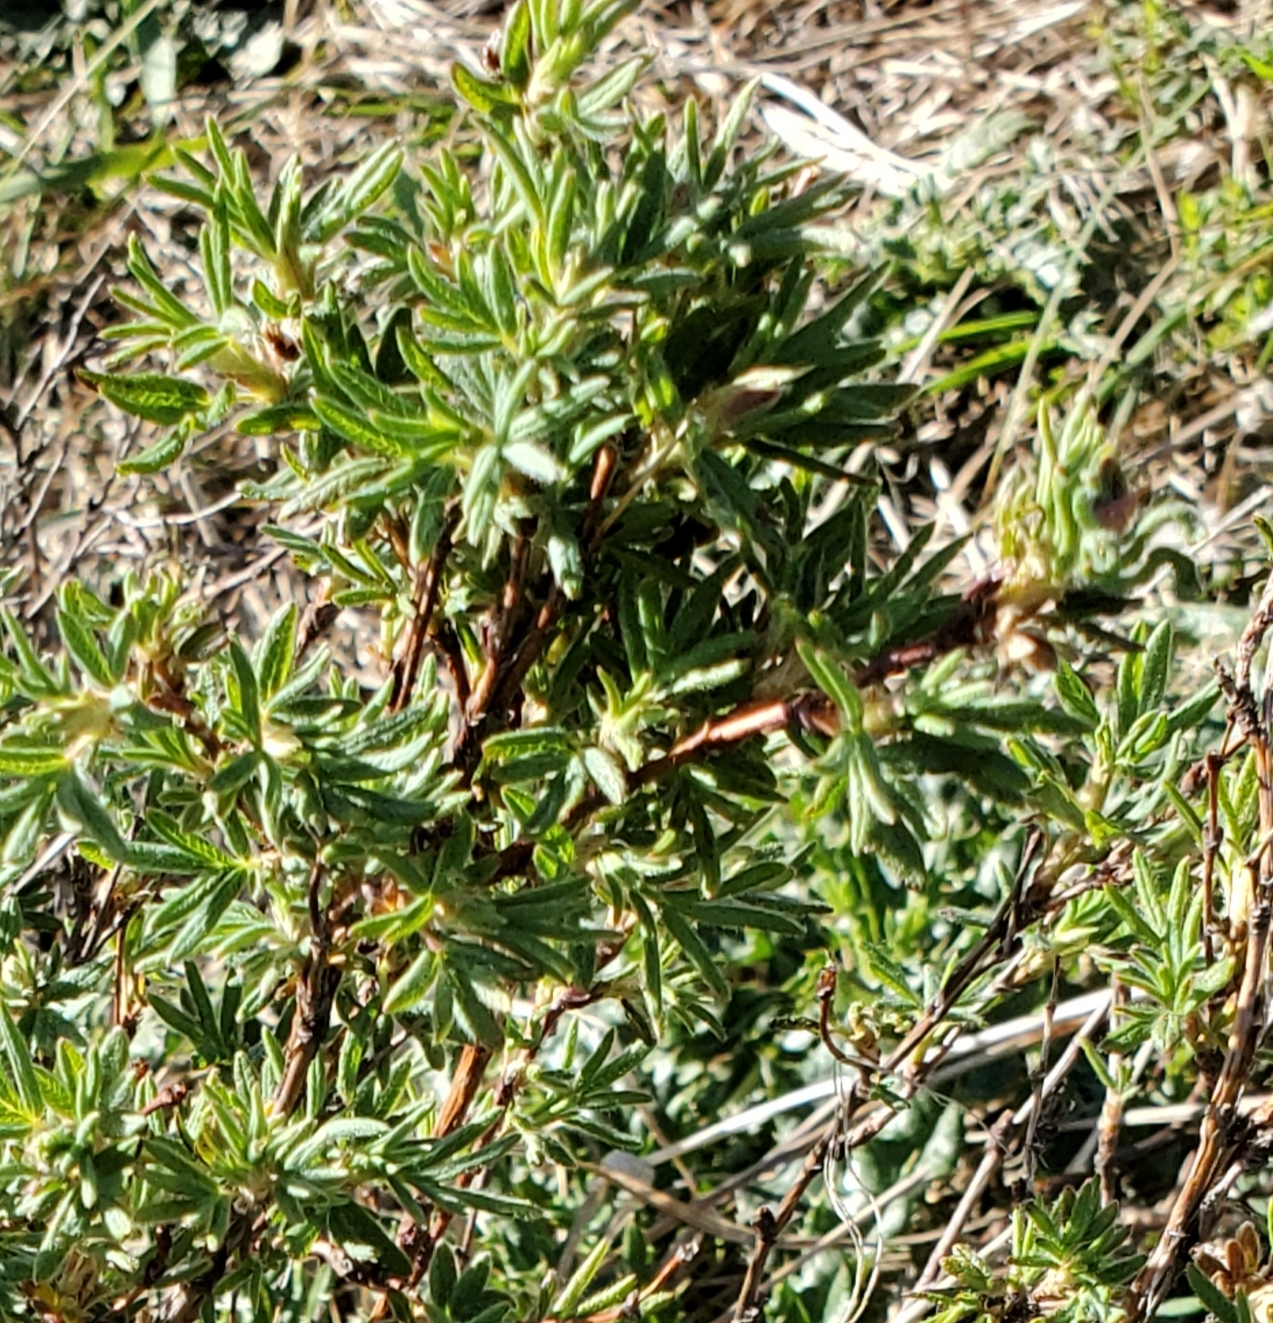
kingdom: Plantae
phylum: Tracheophyta
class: Magnoliopsida
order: Rosales
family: Rosaceae
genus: Dasiphora
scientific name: Dasiphora fruticosa
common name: Shrubby cinquefoil
